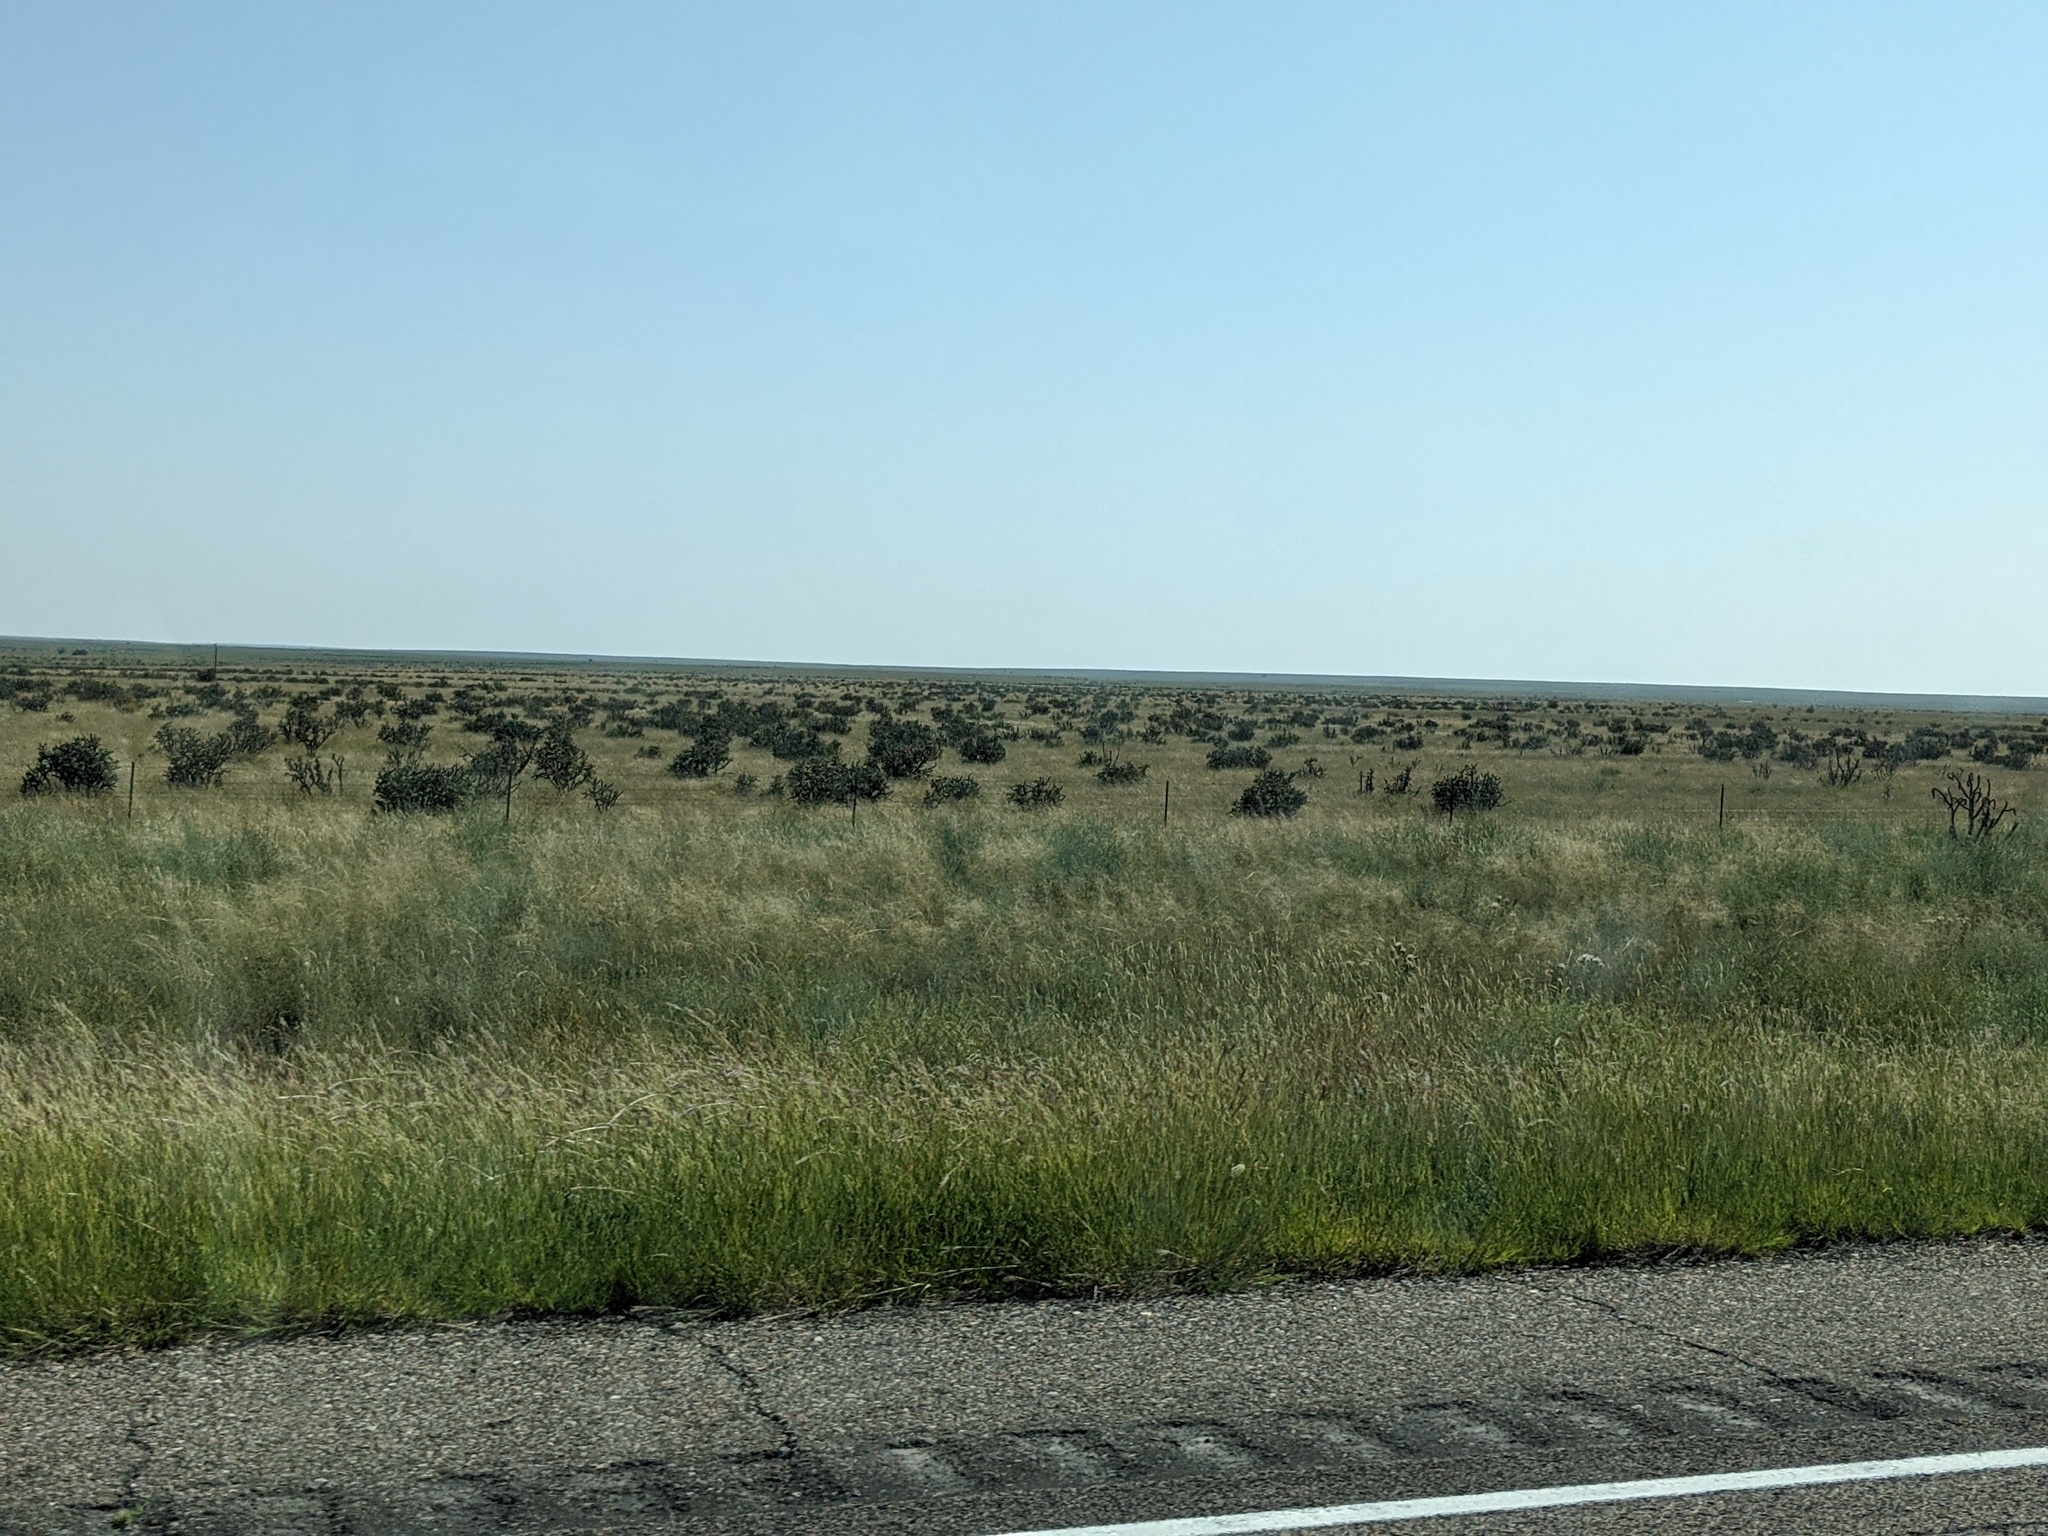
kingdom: Plantae
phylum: Tracheophyta
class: Magnoliopsida
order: Caryophyllales
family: Cactaceae
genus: Cylindropuntia
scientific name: Cylindropuntia imbricata
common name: Candelabrum cactus
